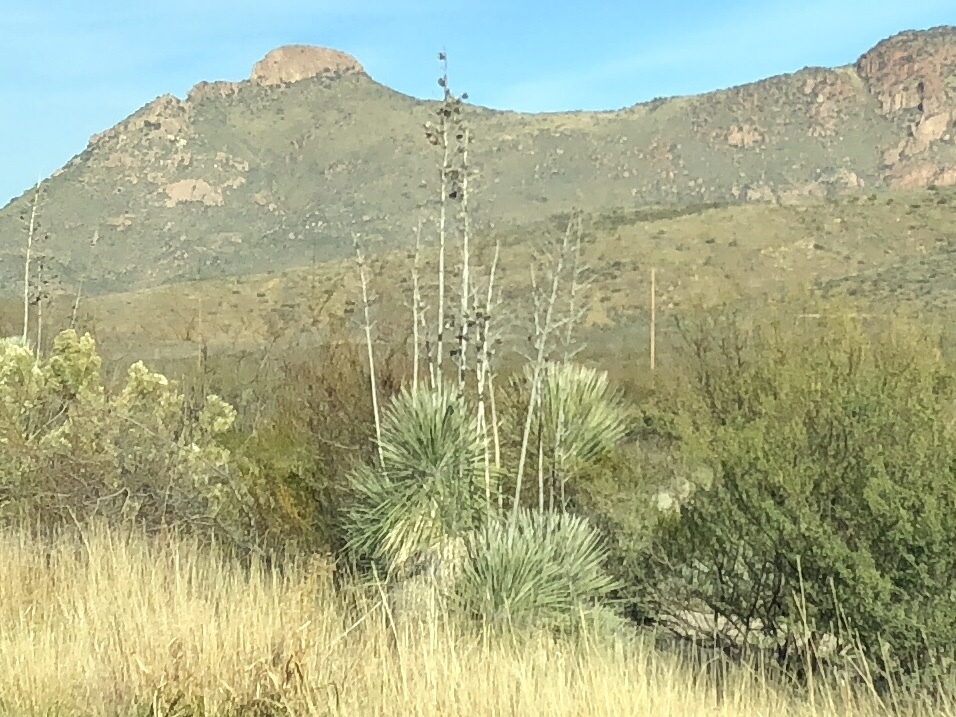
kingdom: Plantae
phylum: Tracheophyta
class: Liliopsida
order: Asparagales
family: Asparagaceae
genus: Yucca
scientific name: Yucca elata
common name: Palmella
